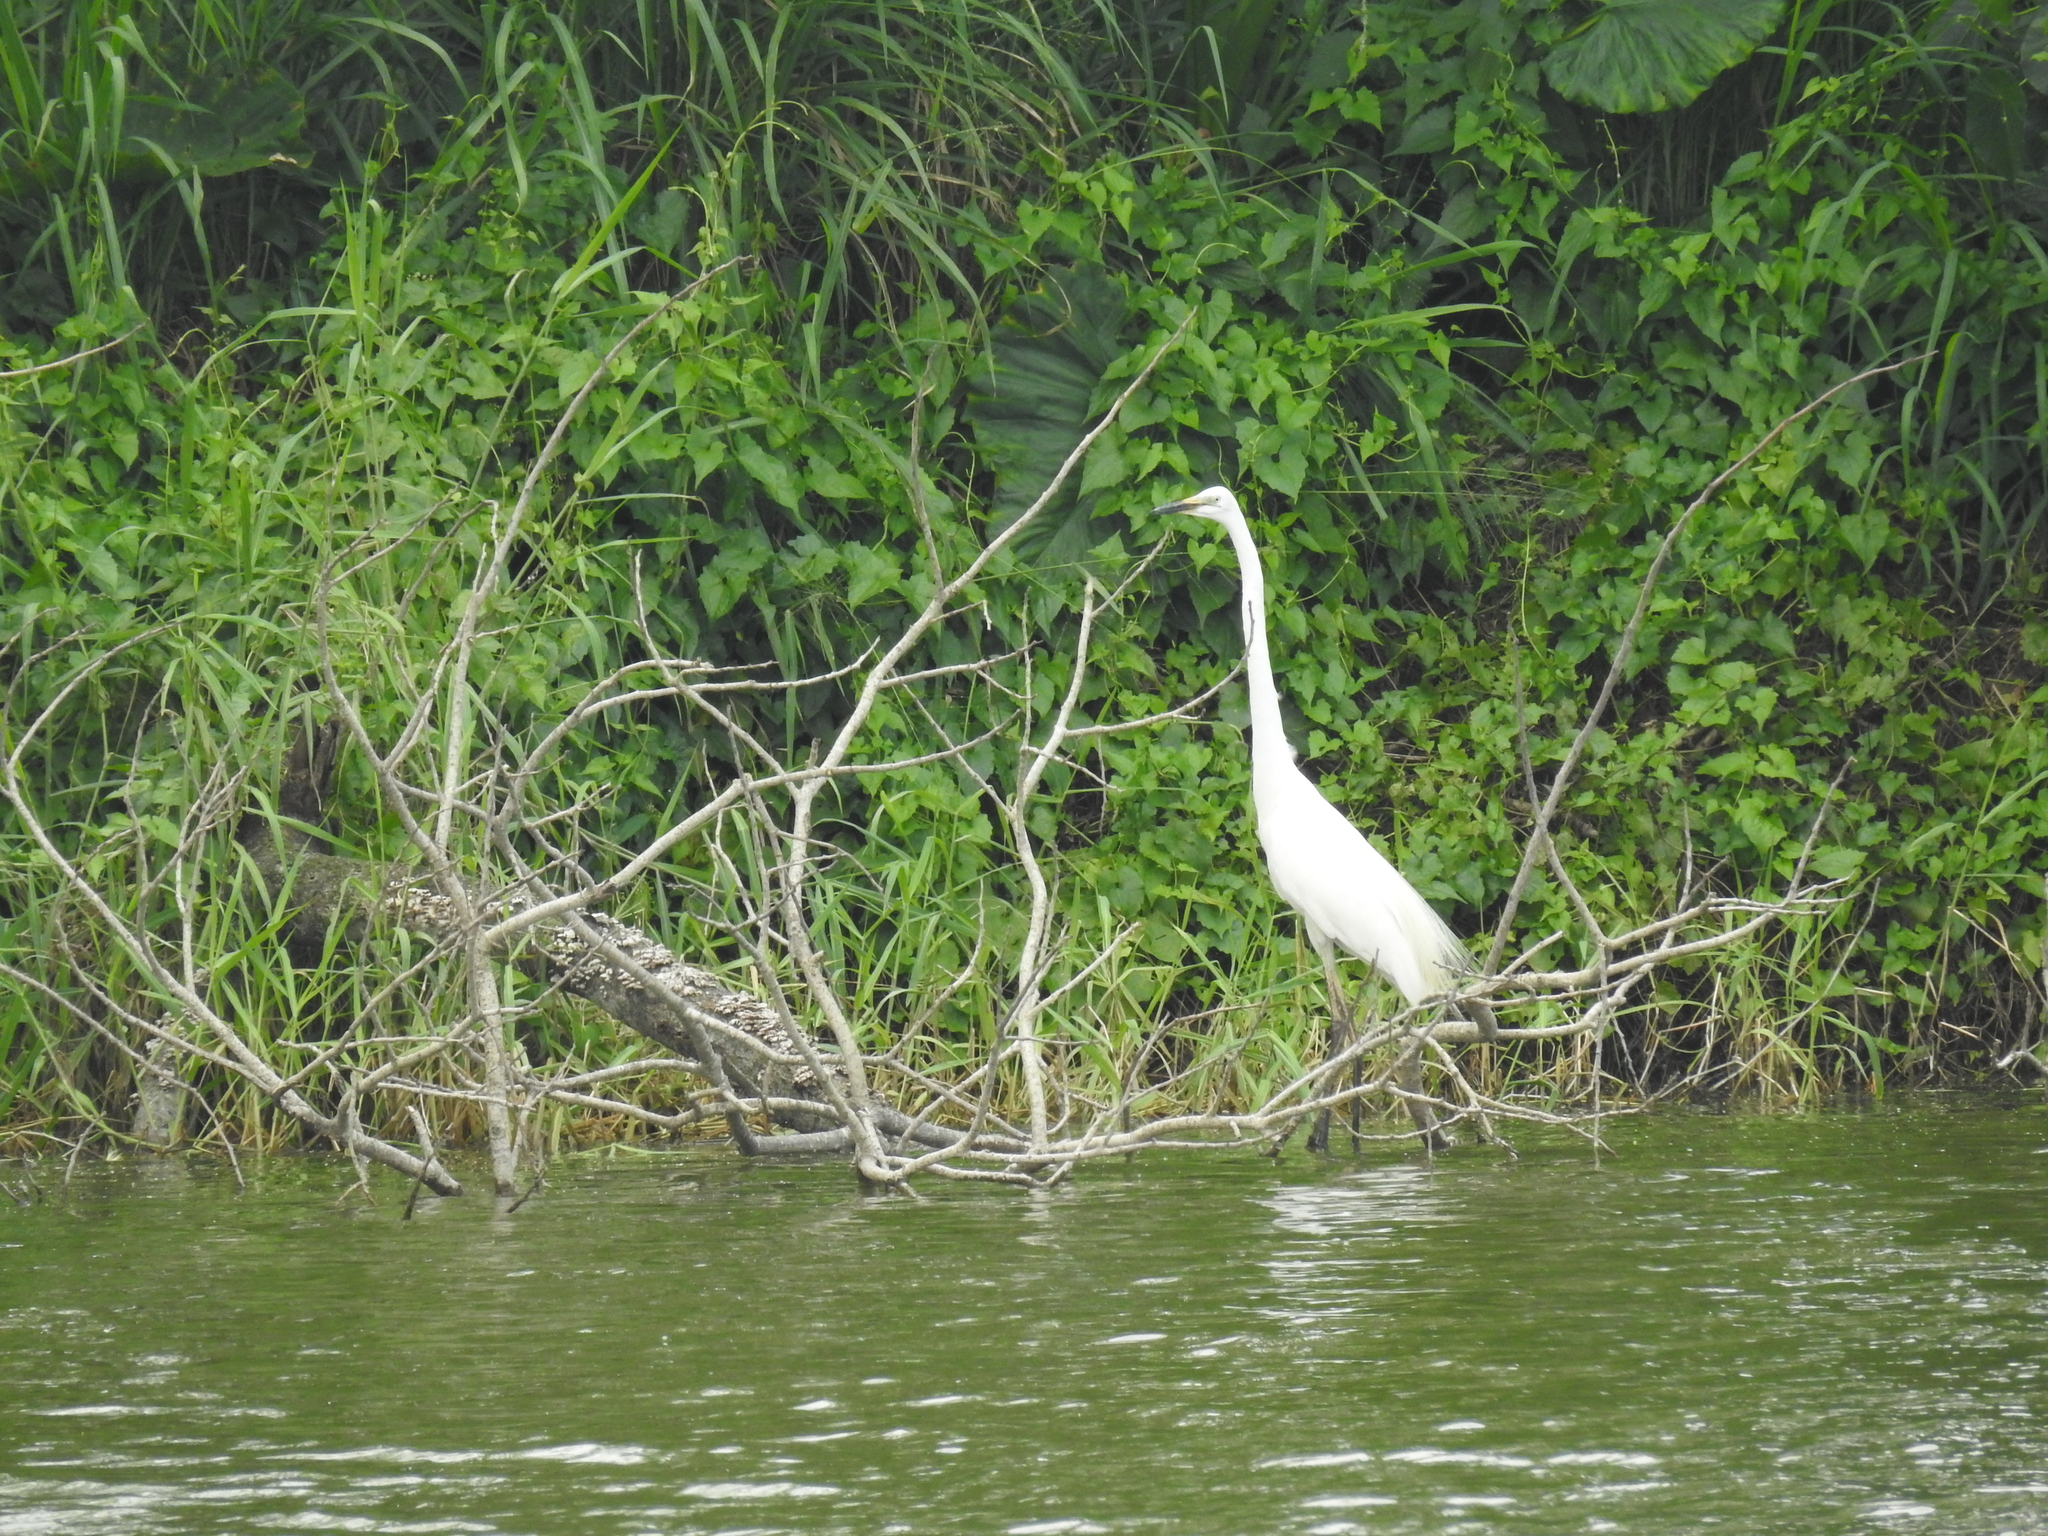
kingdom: Animalia
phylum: Chordata
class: Aves
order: Pelecaniformes
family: Ardeidae
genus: Ardea
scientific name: Ardea alba
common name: Great egret
